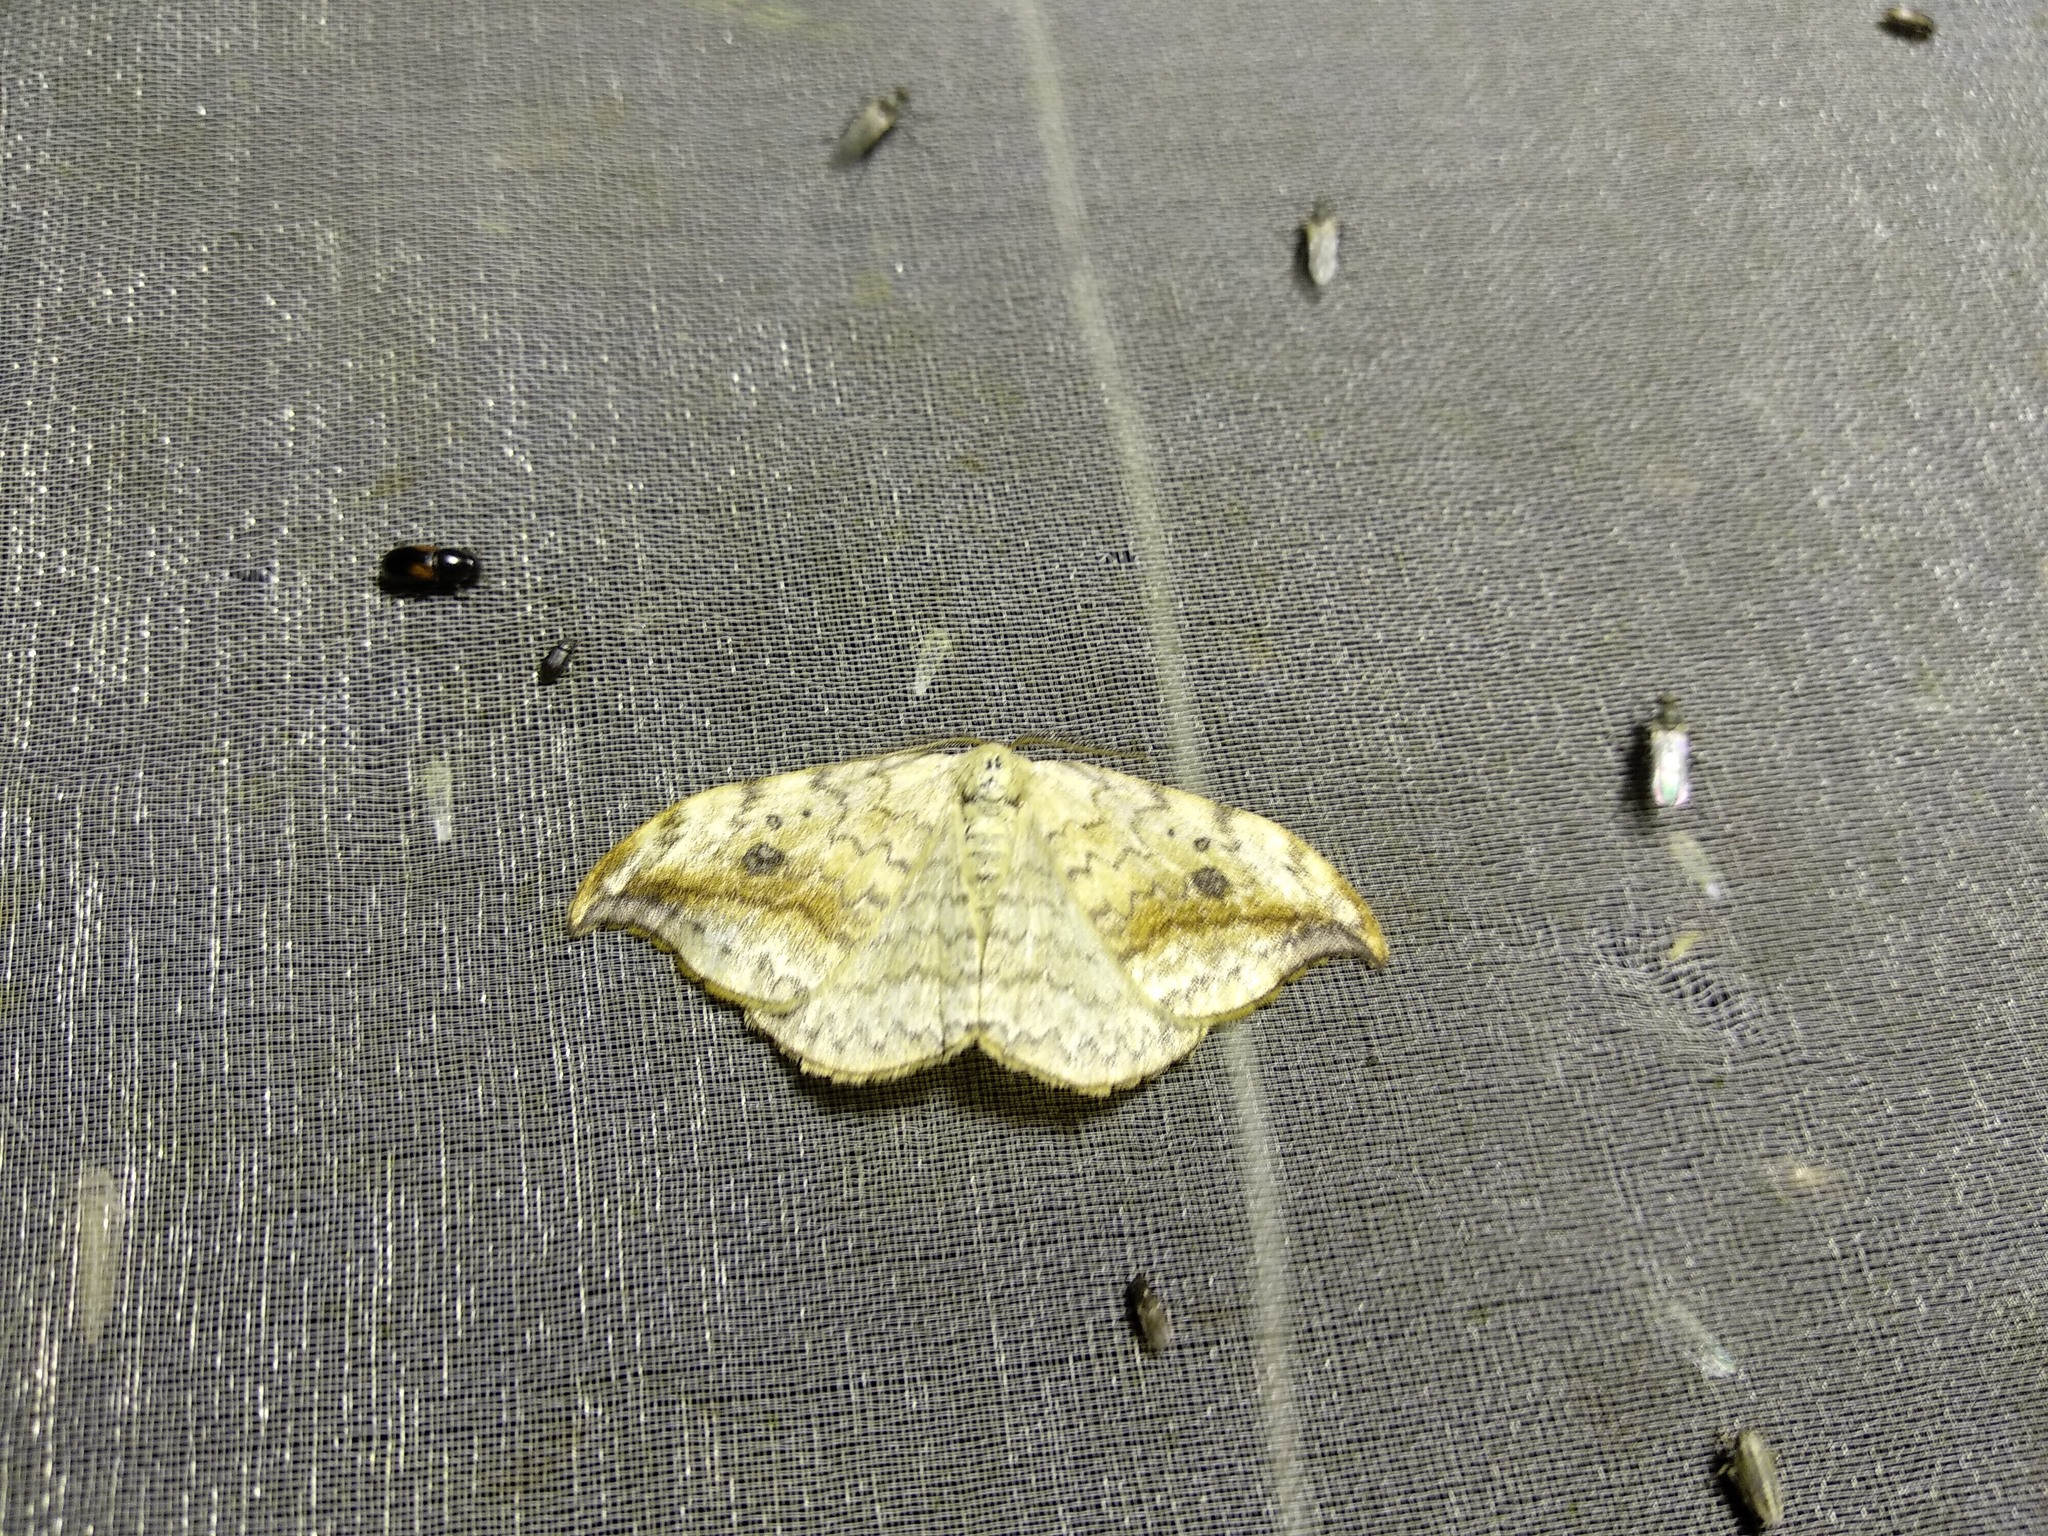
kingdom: Animalia
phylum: Arthropoda
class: Insecta
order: Lepidoptera
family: Drepanidae
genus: Drepana
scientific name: Drepana falcataria
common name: Pebble hook-tip
